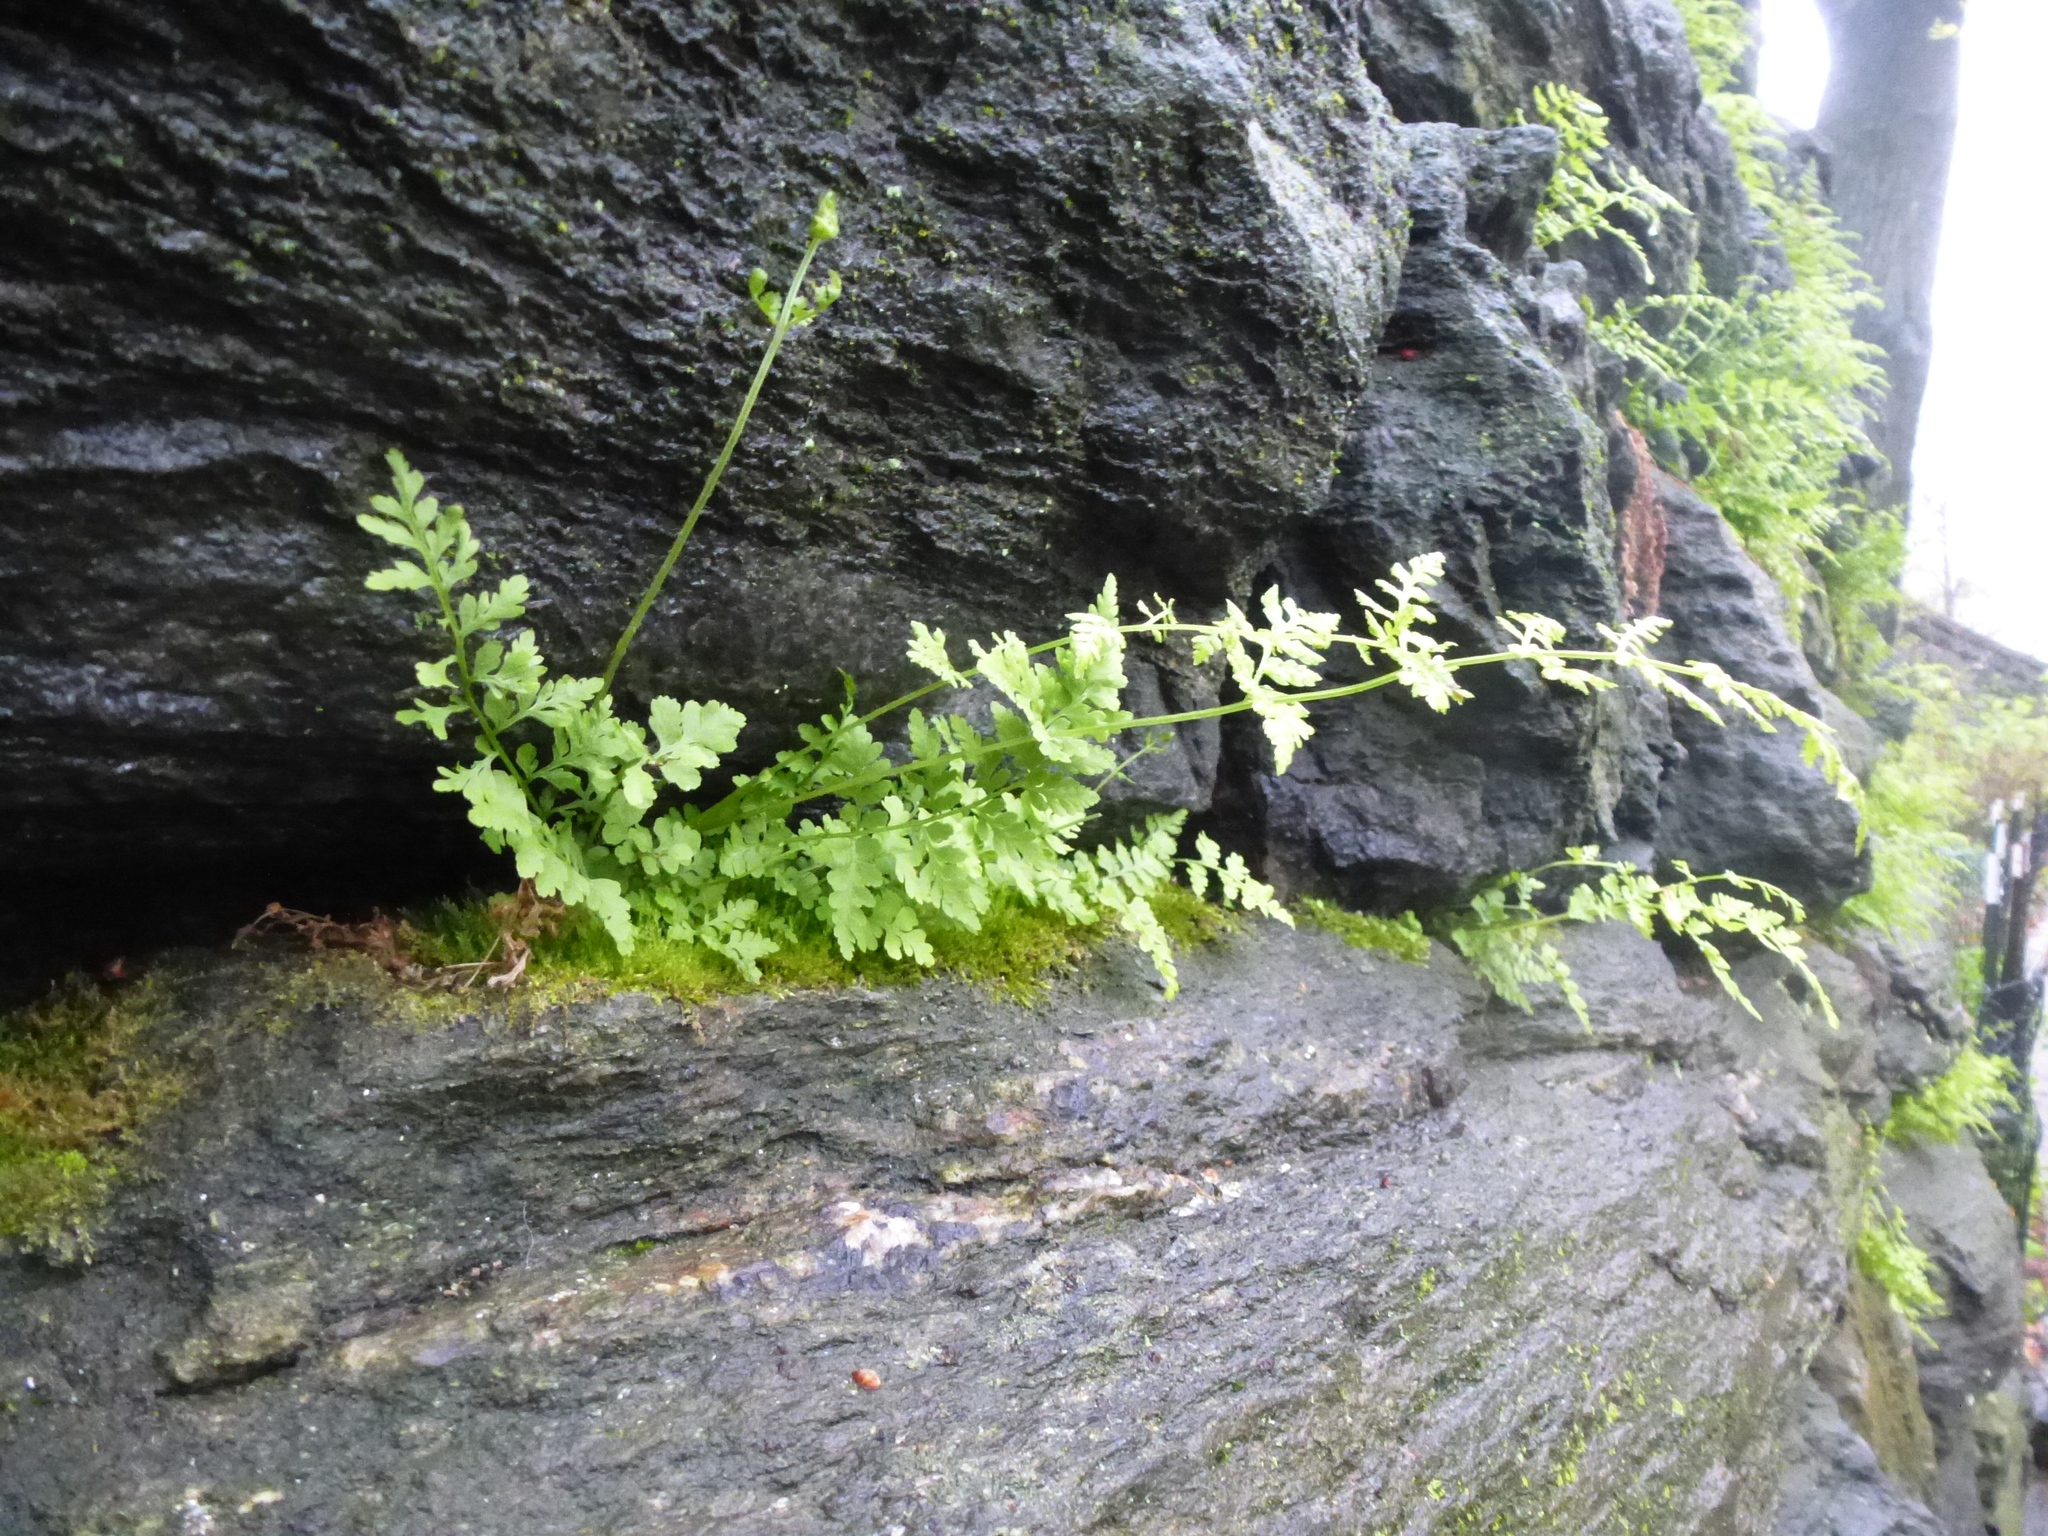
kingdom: Plantae
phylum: Tracheophyta
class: Polypodiopsida
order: Polypodiales
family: Woodsiaceae
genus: Physematium
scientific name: Physematium obtusum
